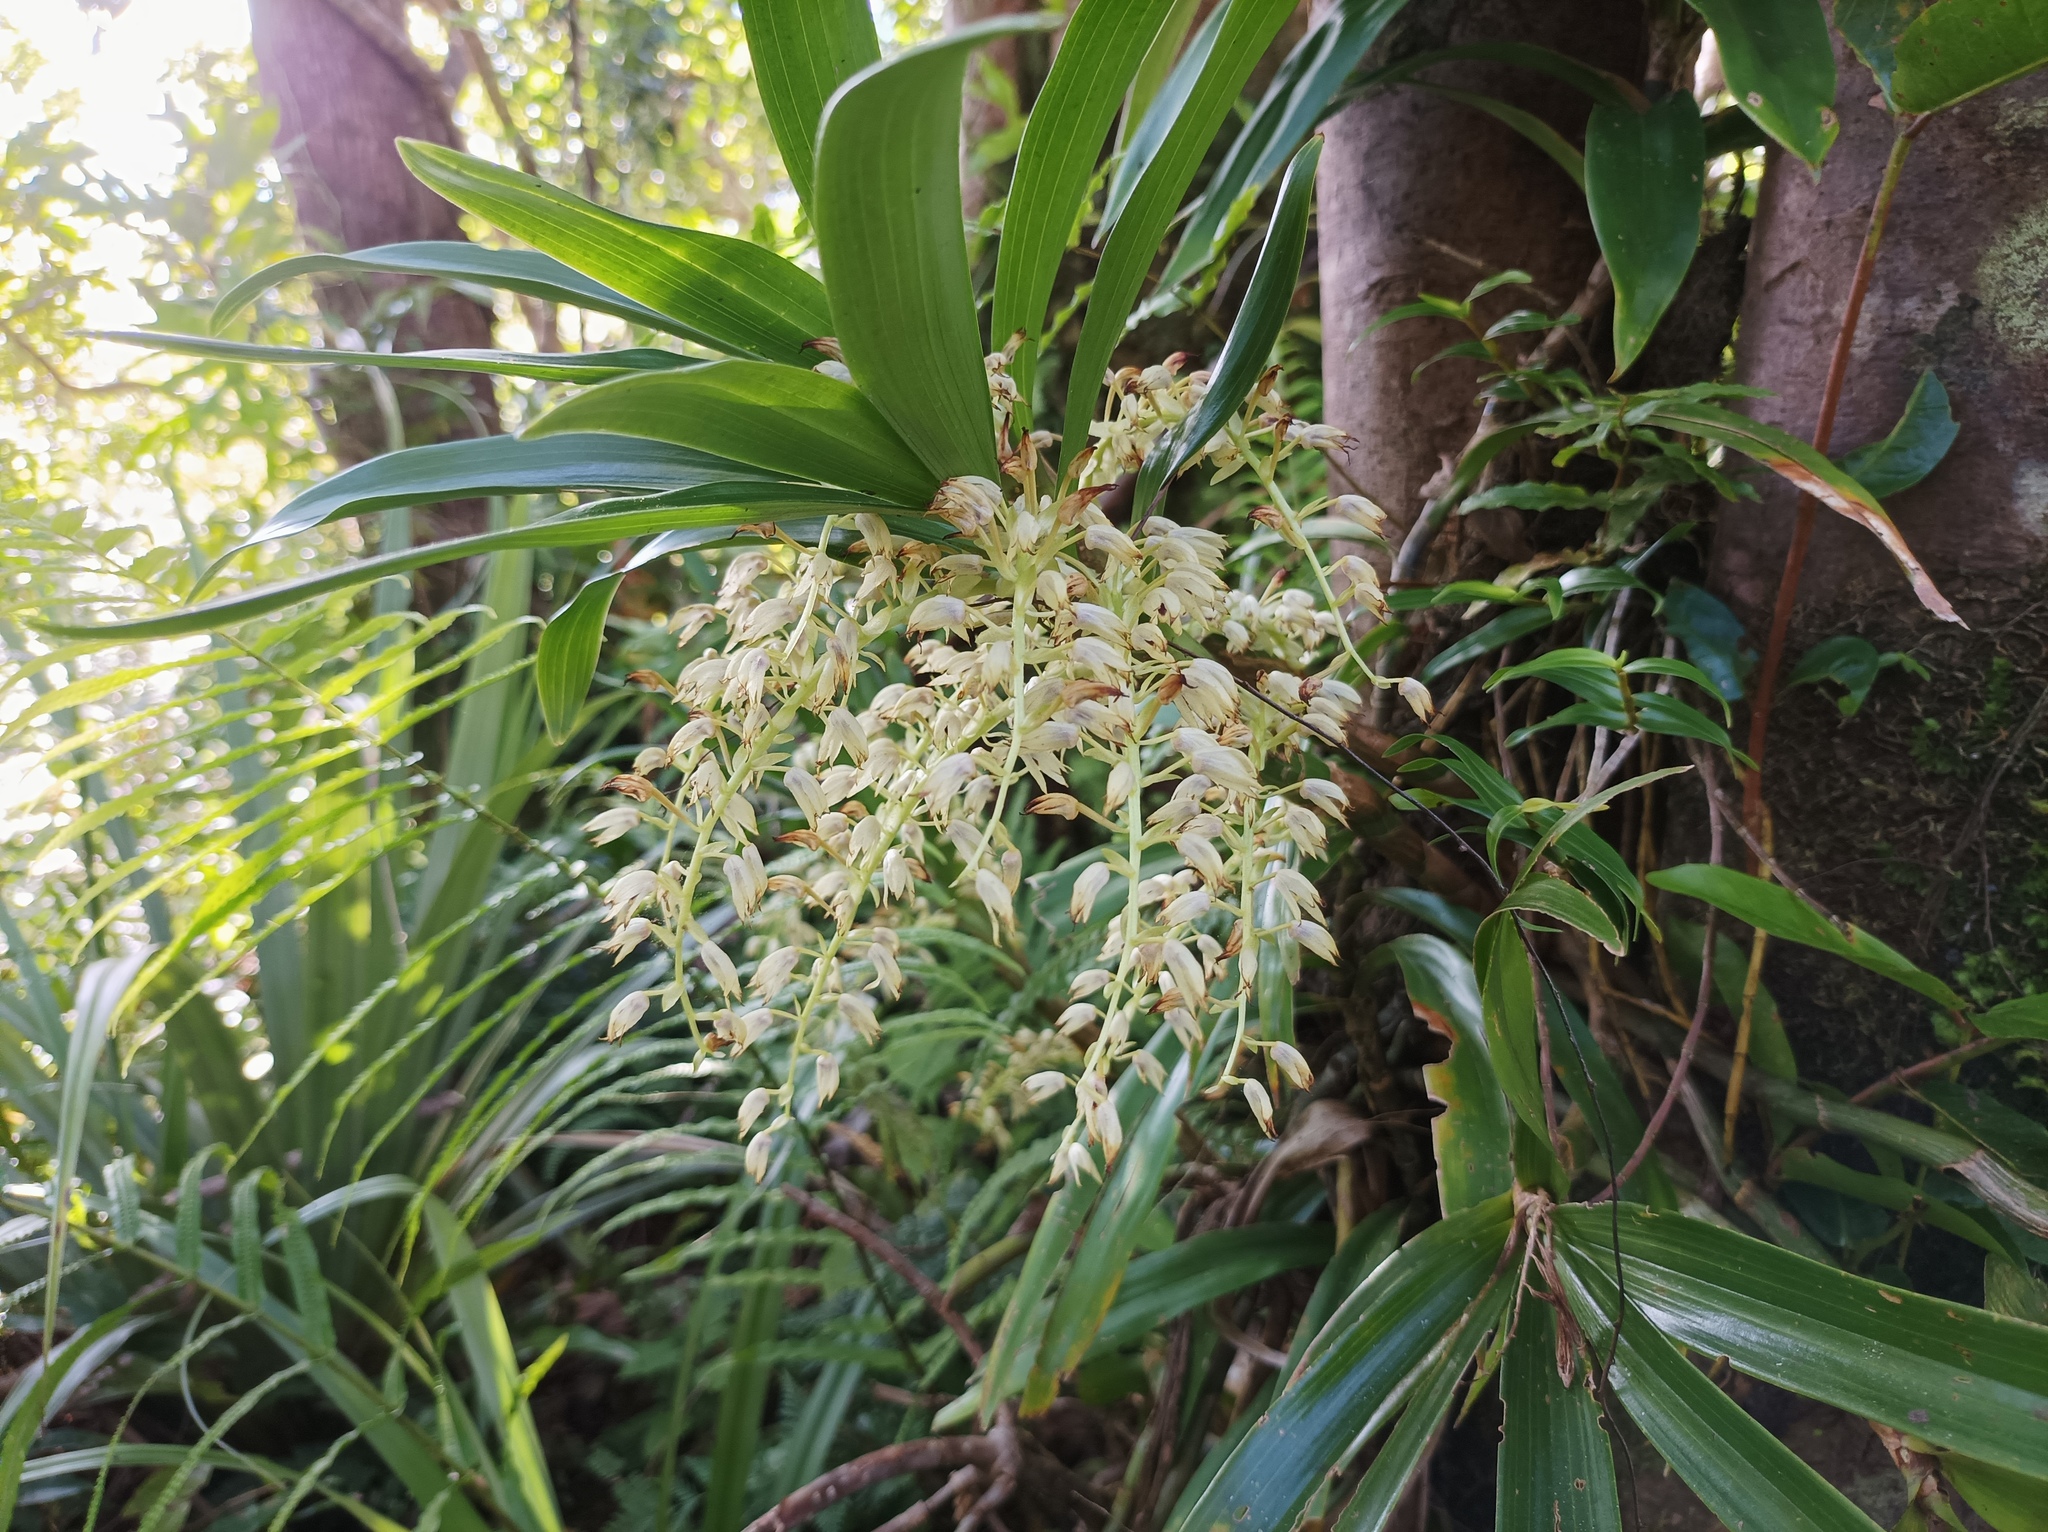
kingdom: Plantae
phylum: Tracheophyta
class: Liliopsida
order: Asparagales
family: Orchidaceae
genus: Eria
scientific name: Eria rostriflora
